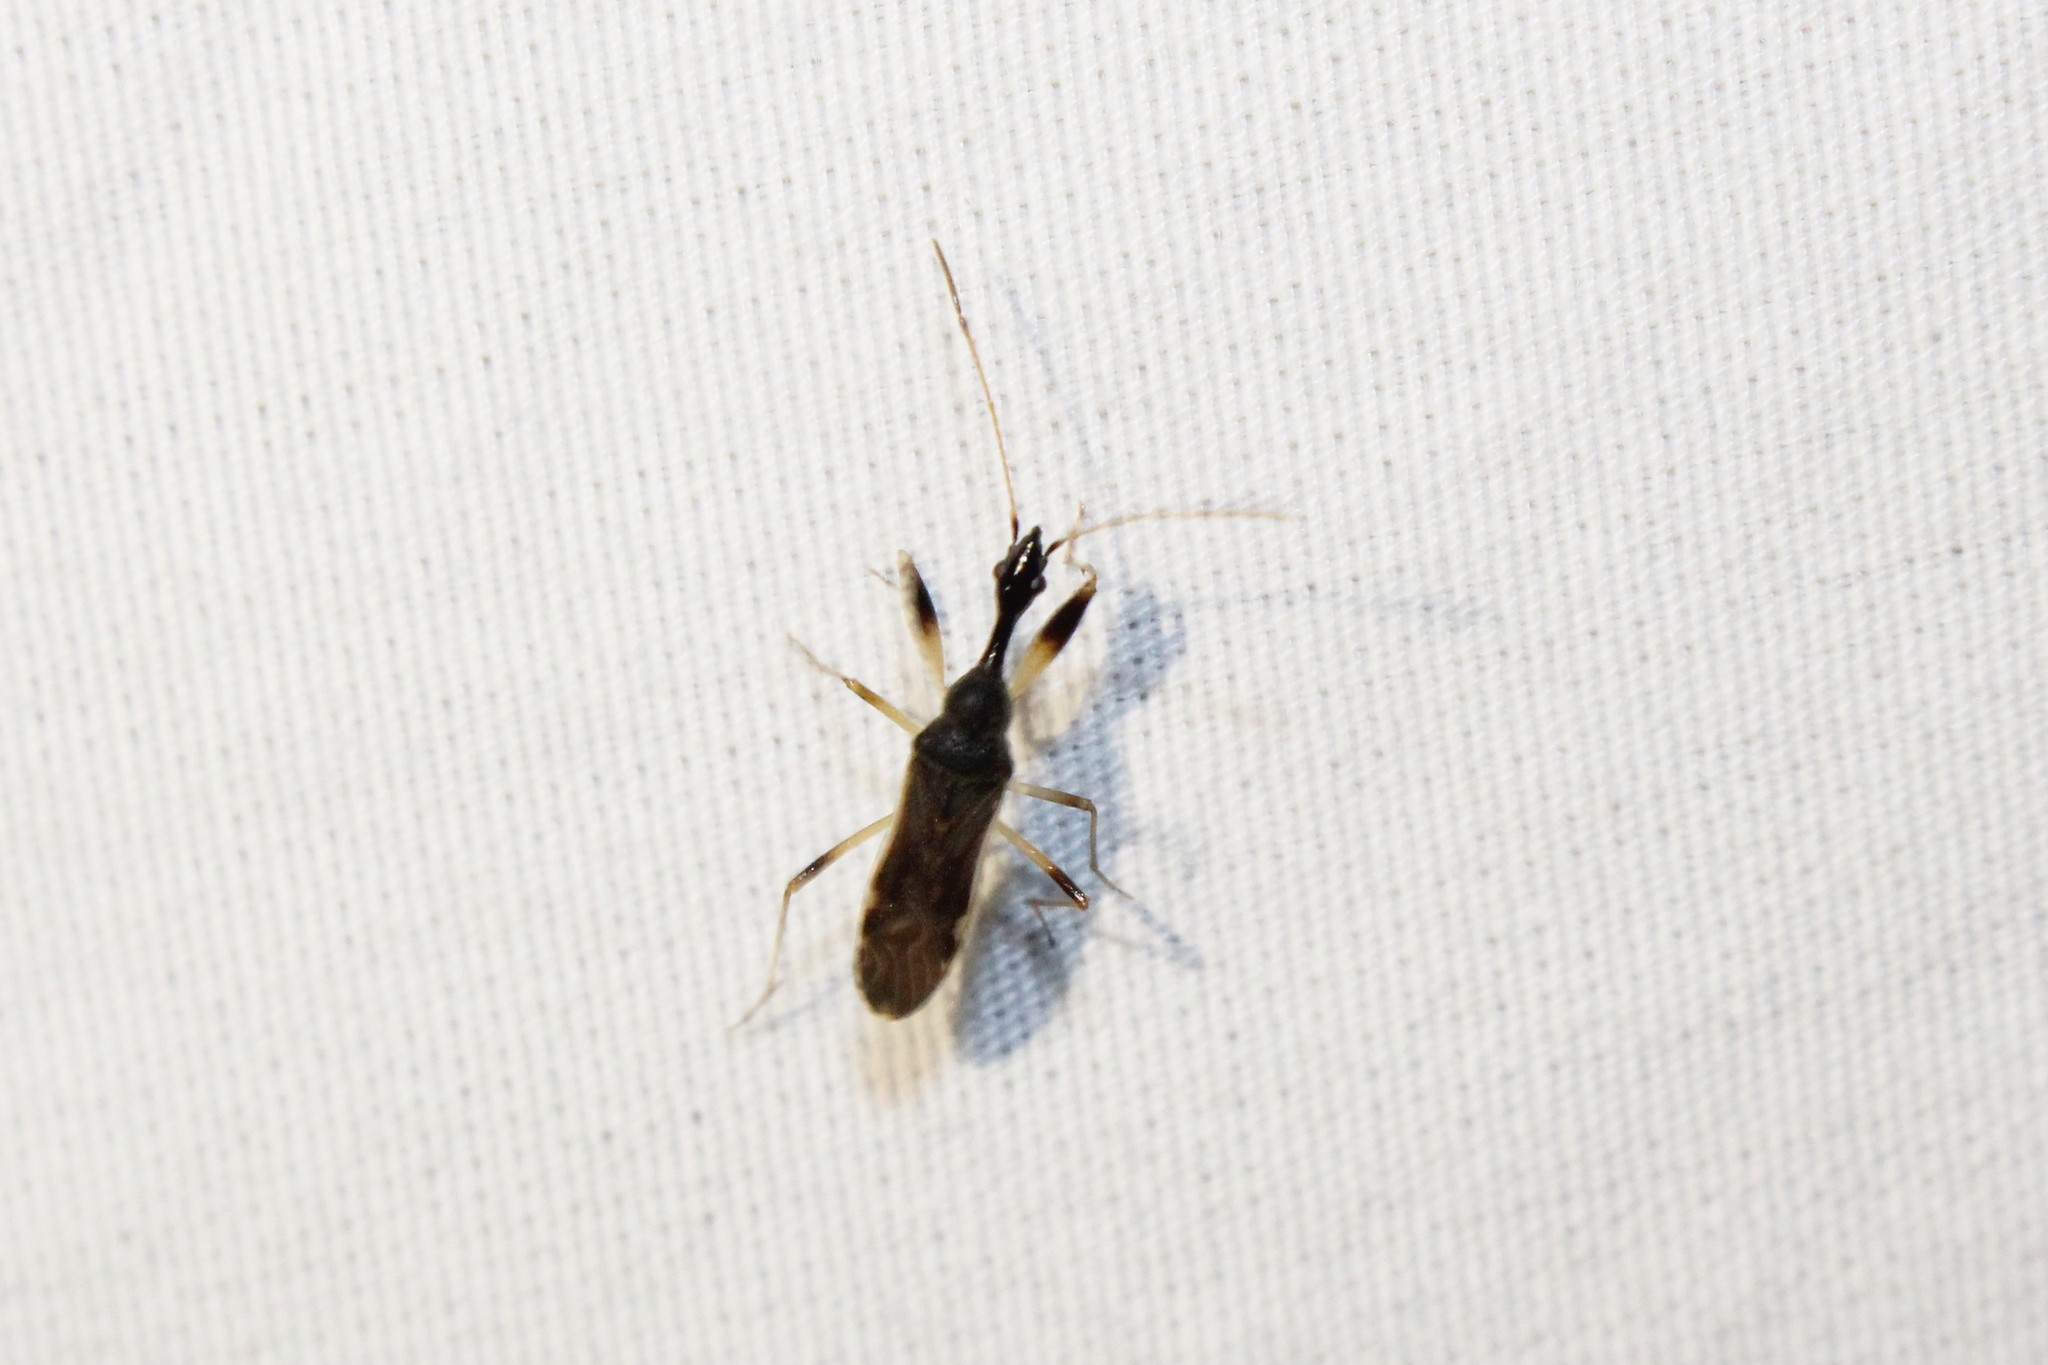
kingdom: Animalia
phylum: Arthropoda
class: Insecta
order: Hemiptera
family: Rhyparochromidae
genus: Myodocha
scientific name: Myodocha serripes
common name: Long-necked seed bug
